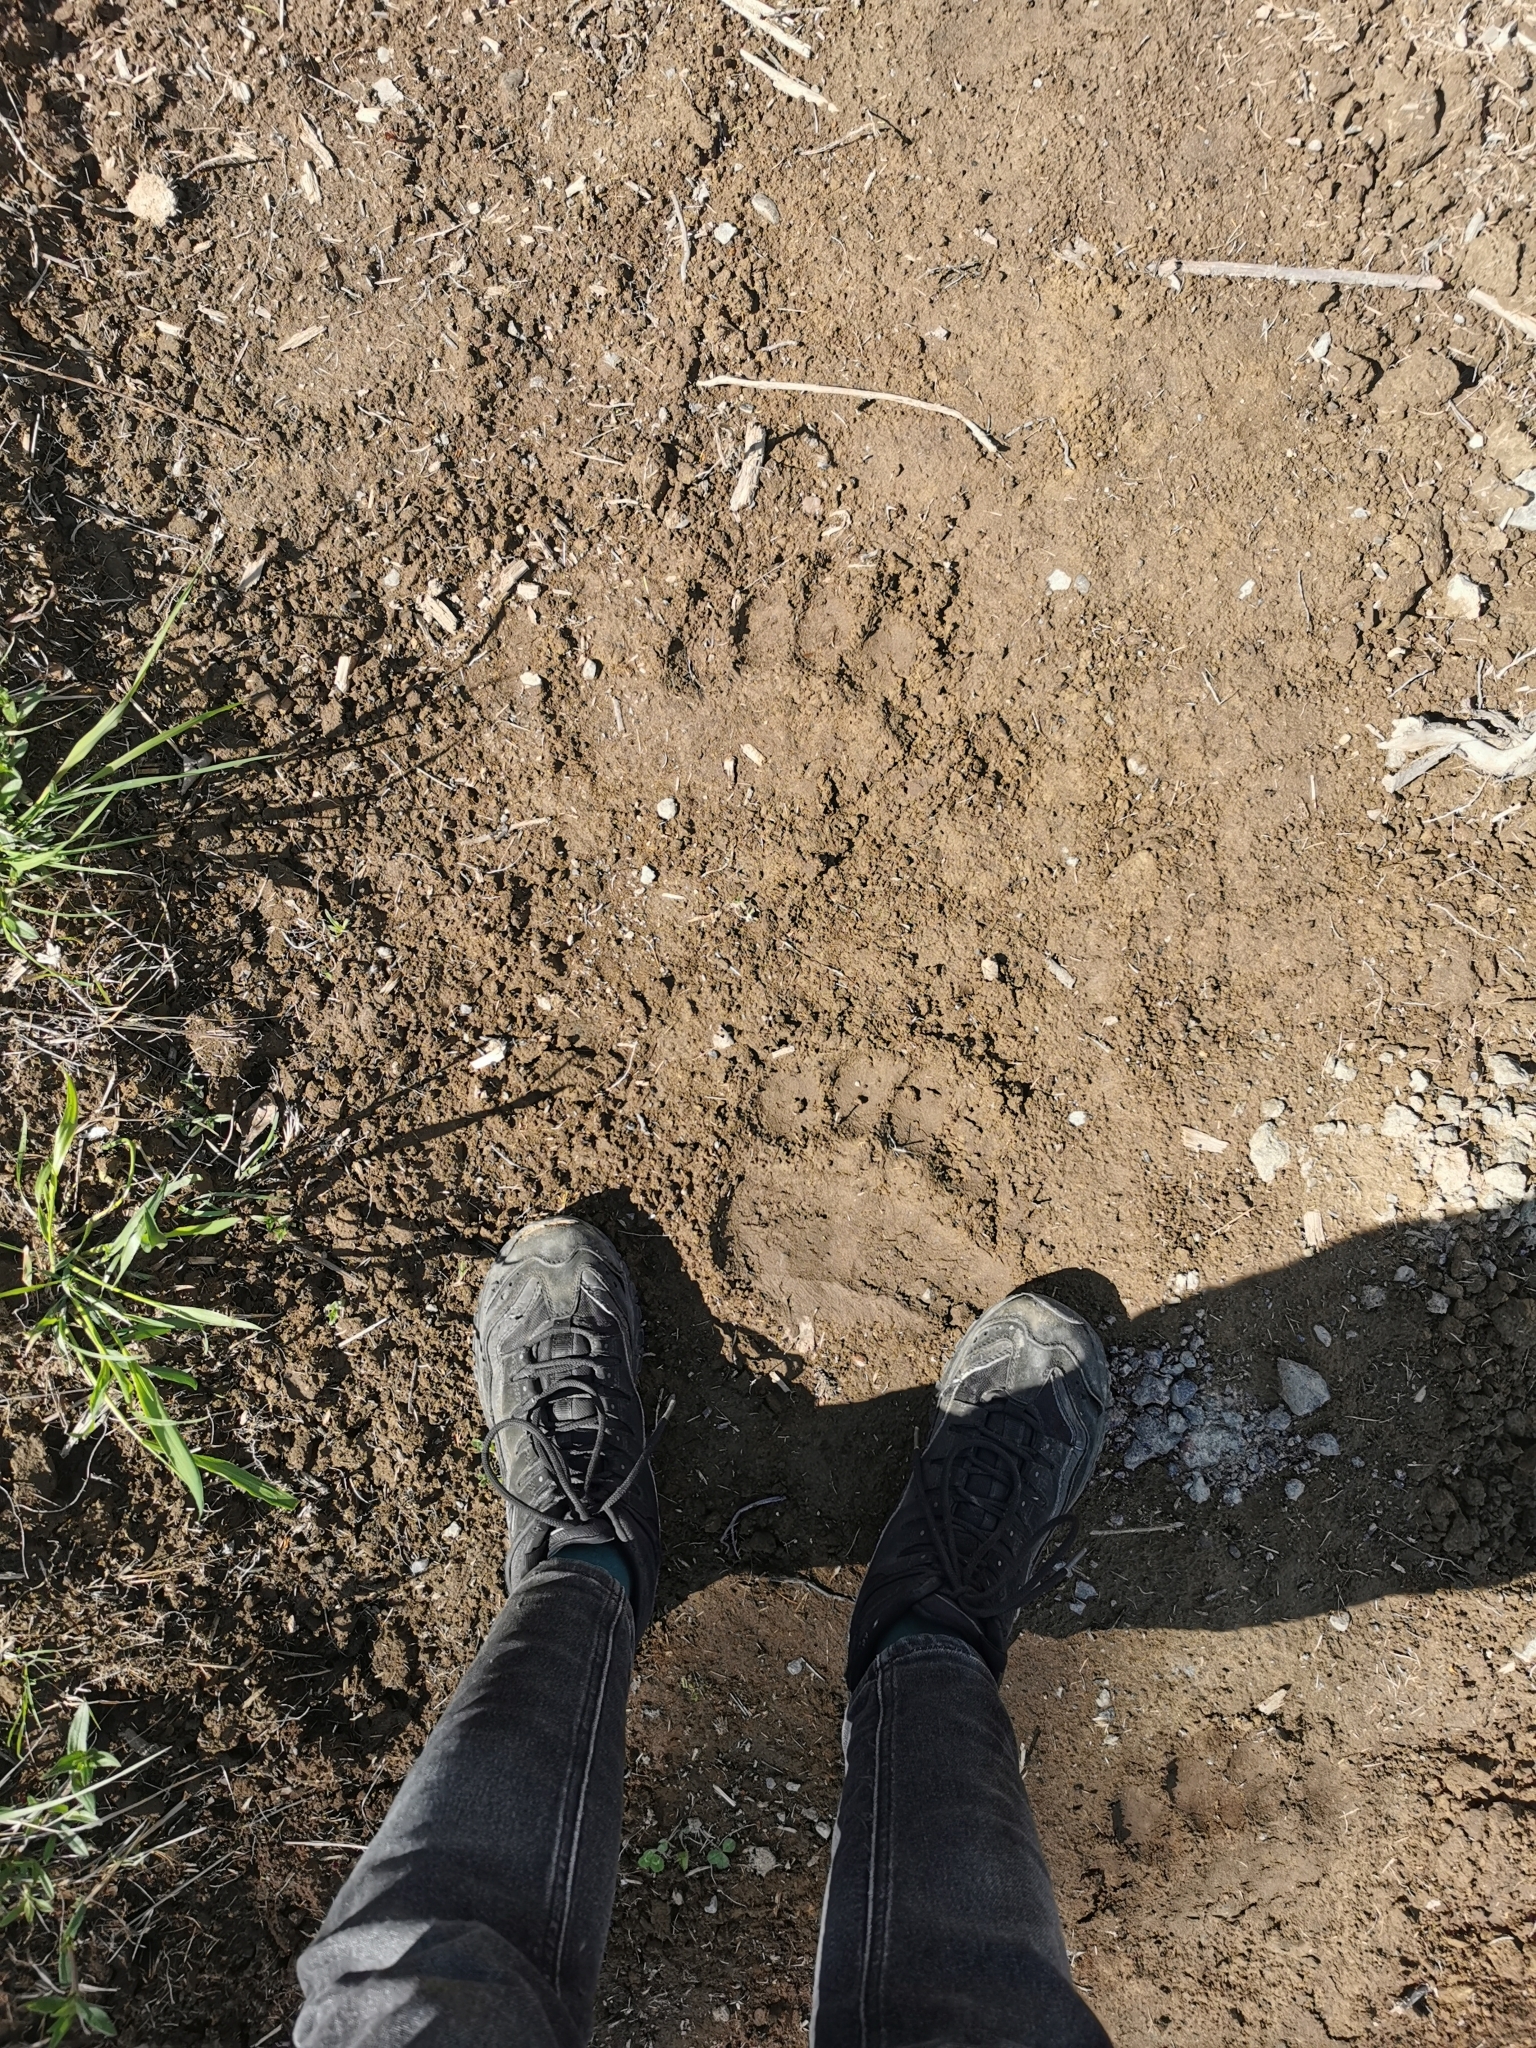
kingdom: Animalia
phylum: Chordata
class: Mammalia
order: Carnivora
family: Ursidae
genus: Ursus
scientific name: Ursus arctos
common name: Brown bear
